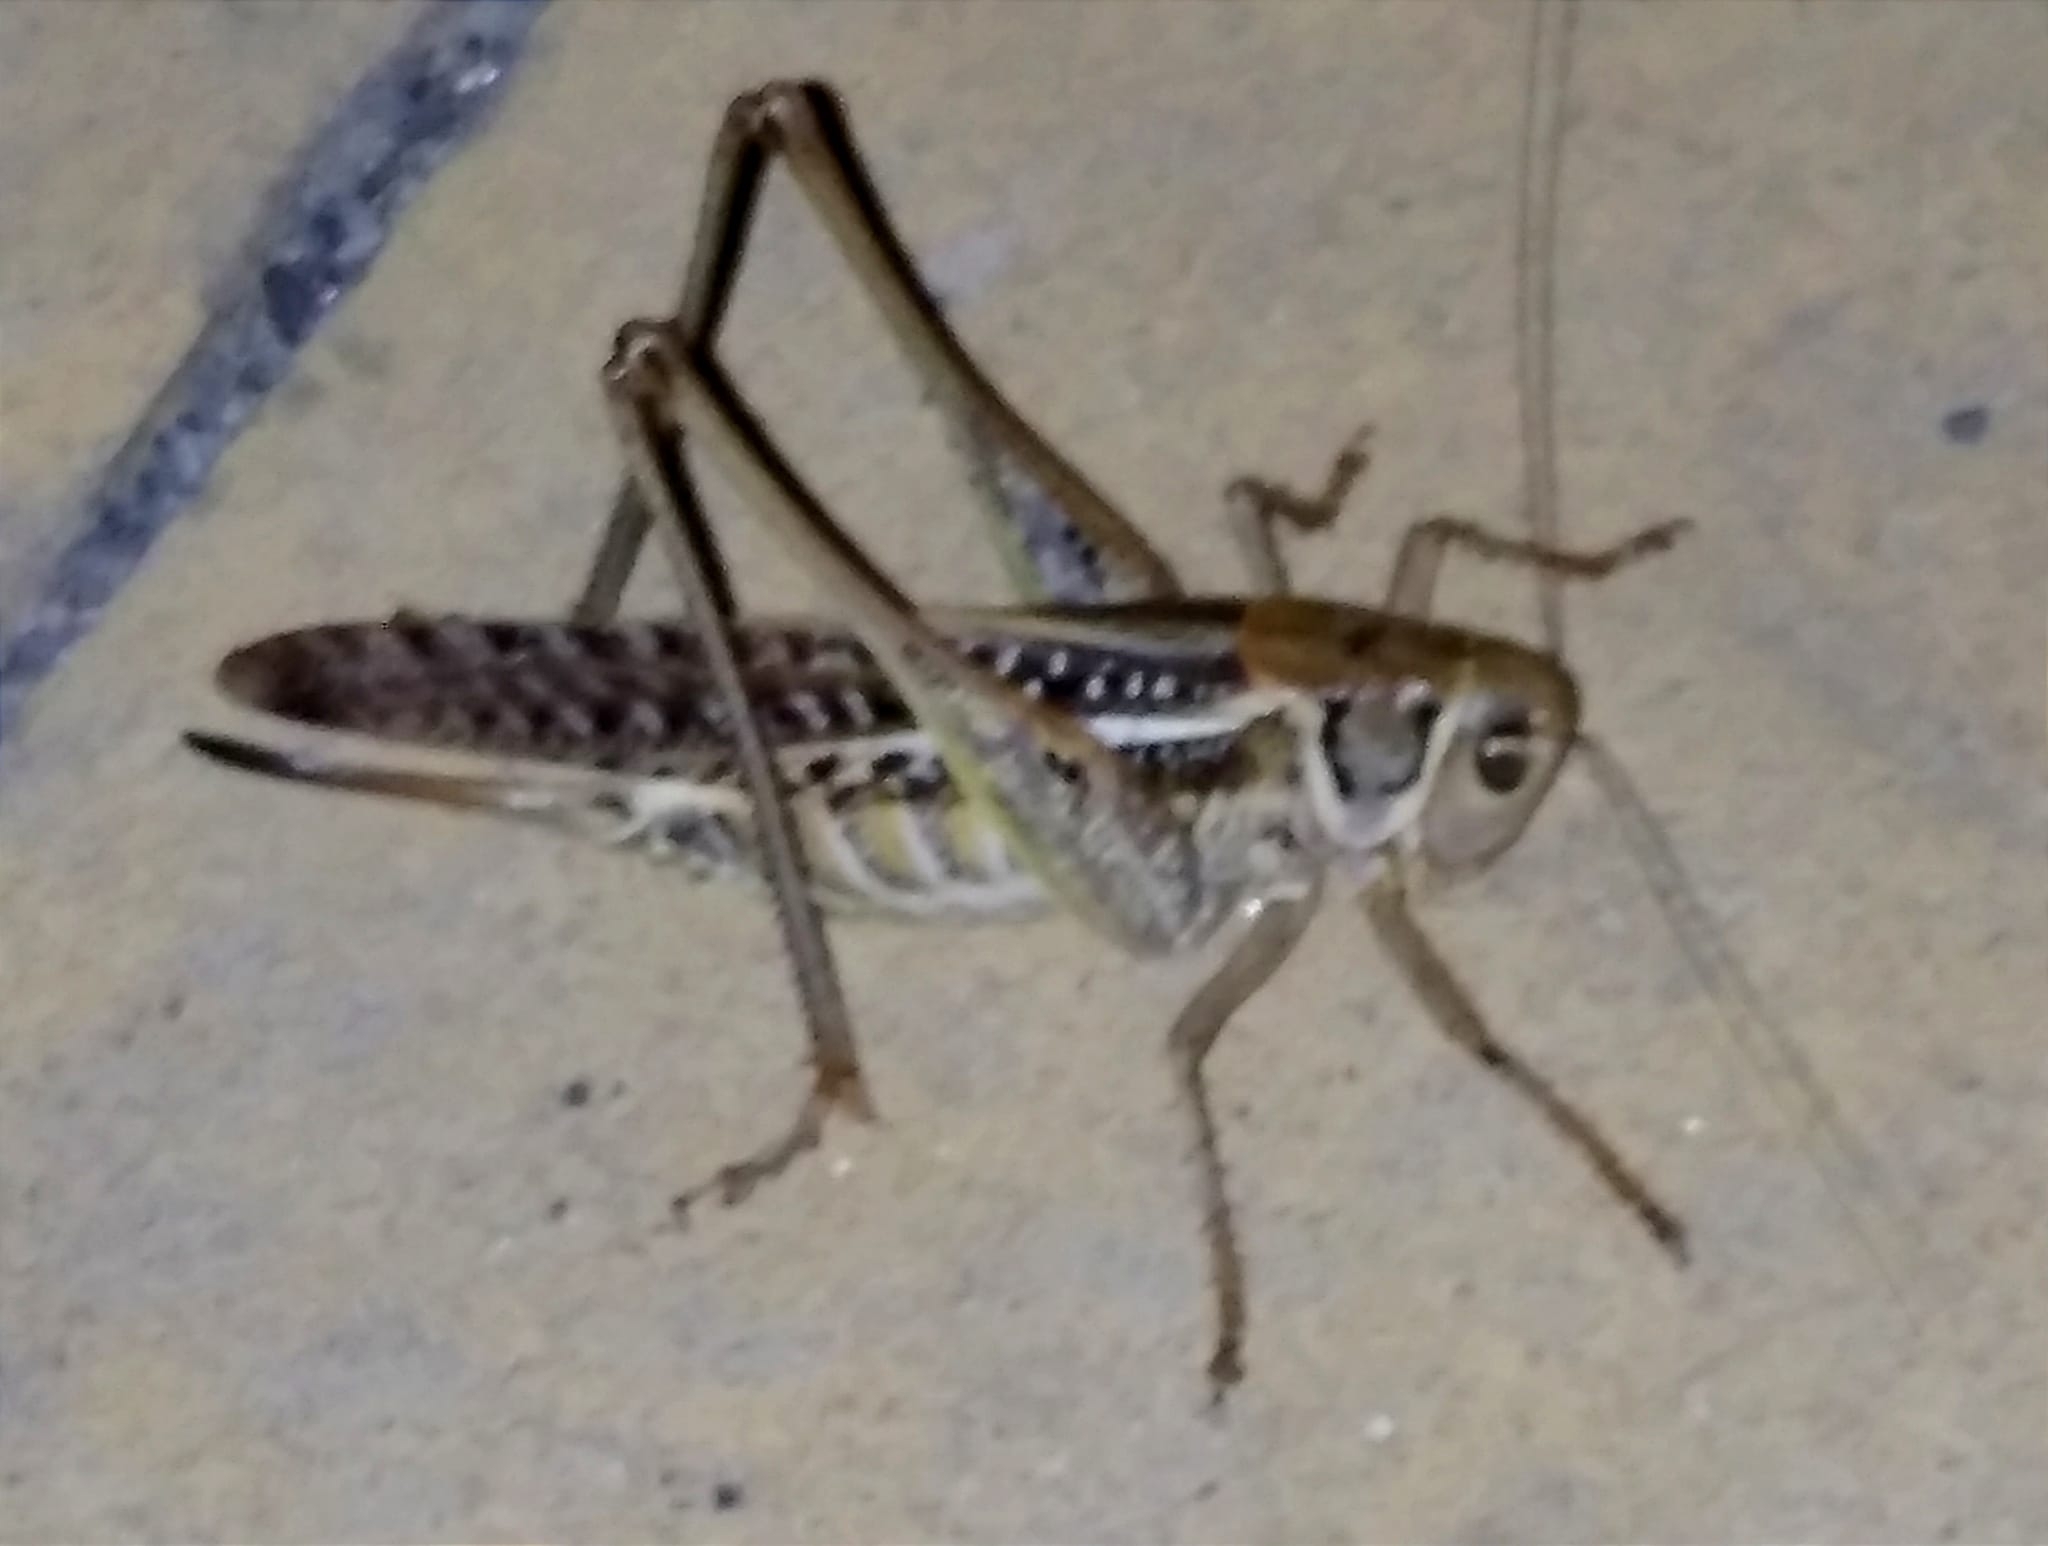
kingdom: Animalia
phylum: Arthropoda
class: Insecta
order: Orthoptera
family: Tettigoniidae
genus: Decticus
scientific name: Decticus albifrons
